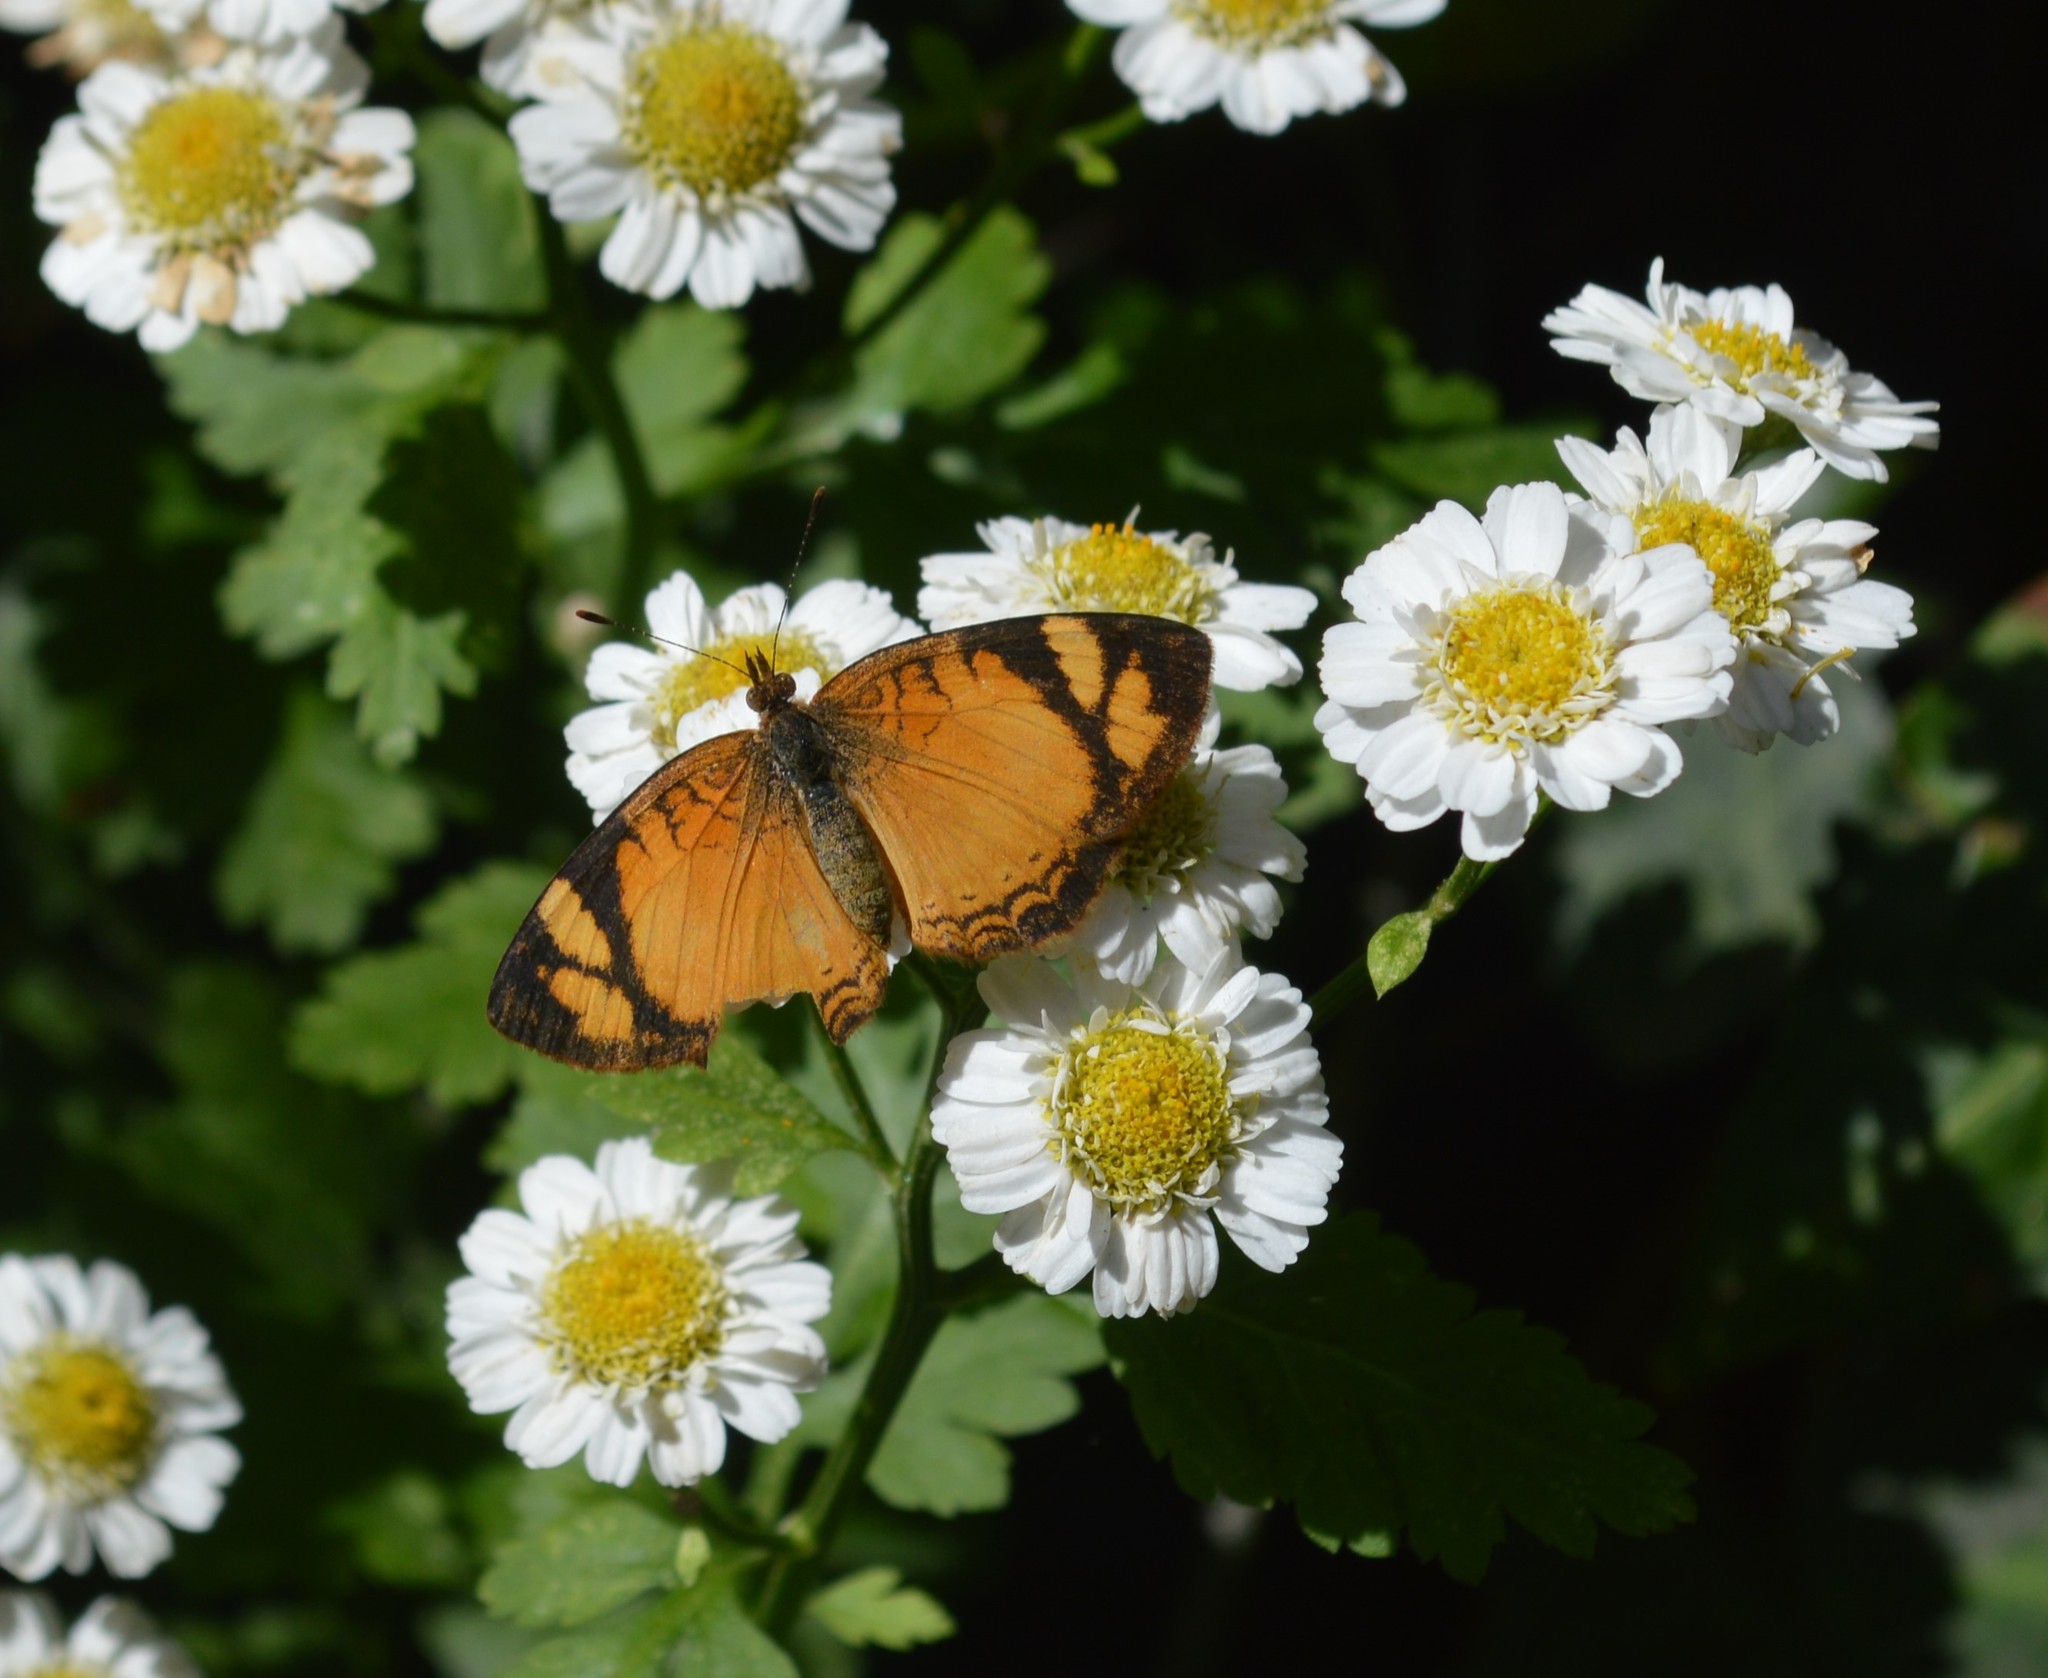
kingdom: Animalia
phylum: Arthropoda
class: Insecta
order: Lepidoptera
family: Nymphalidae
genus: Tegosa
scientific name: Tegosa claudina
